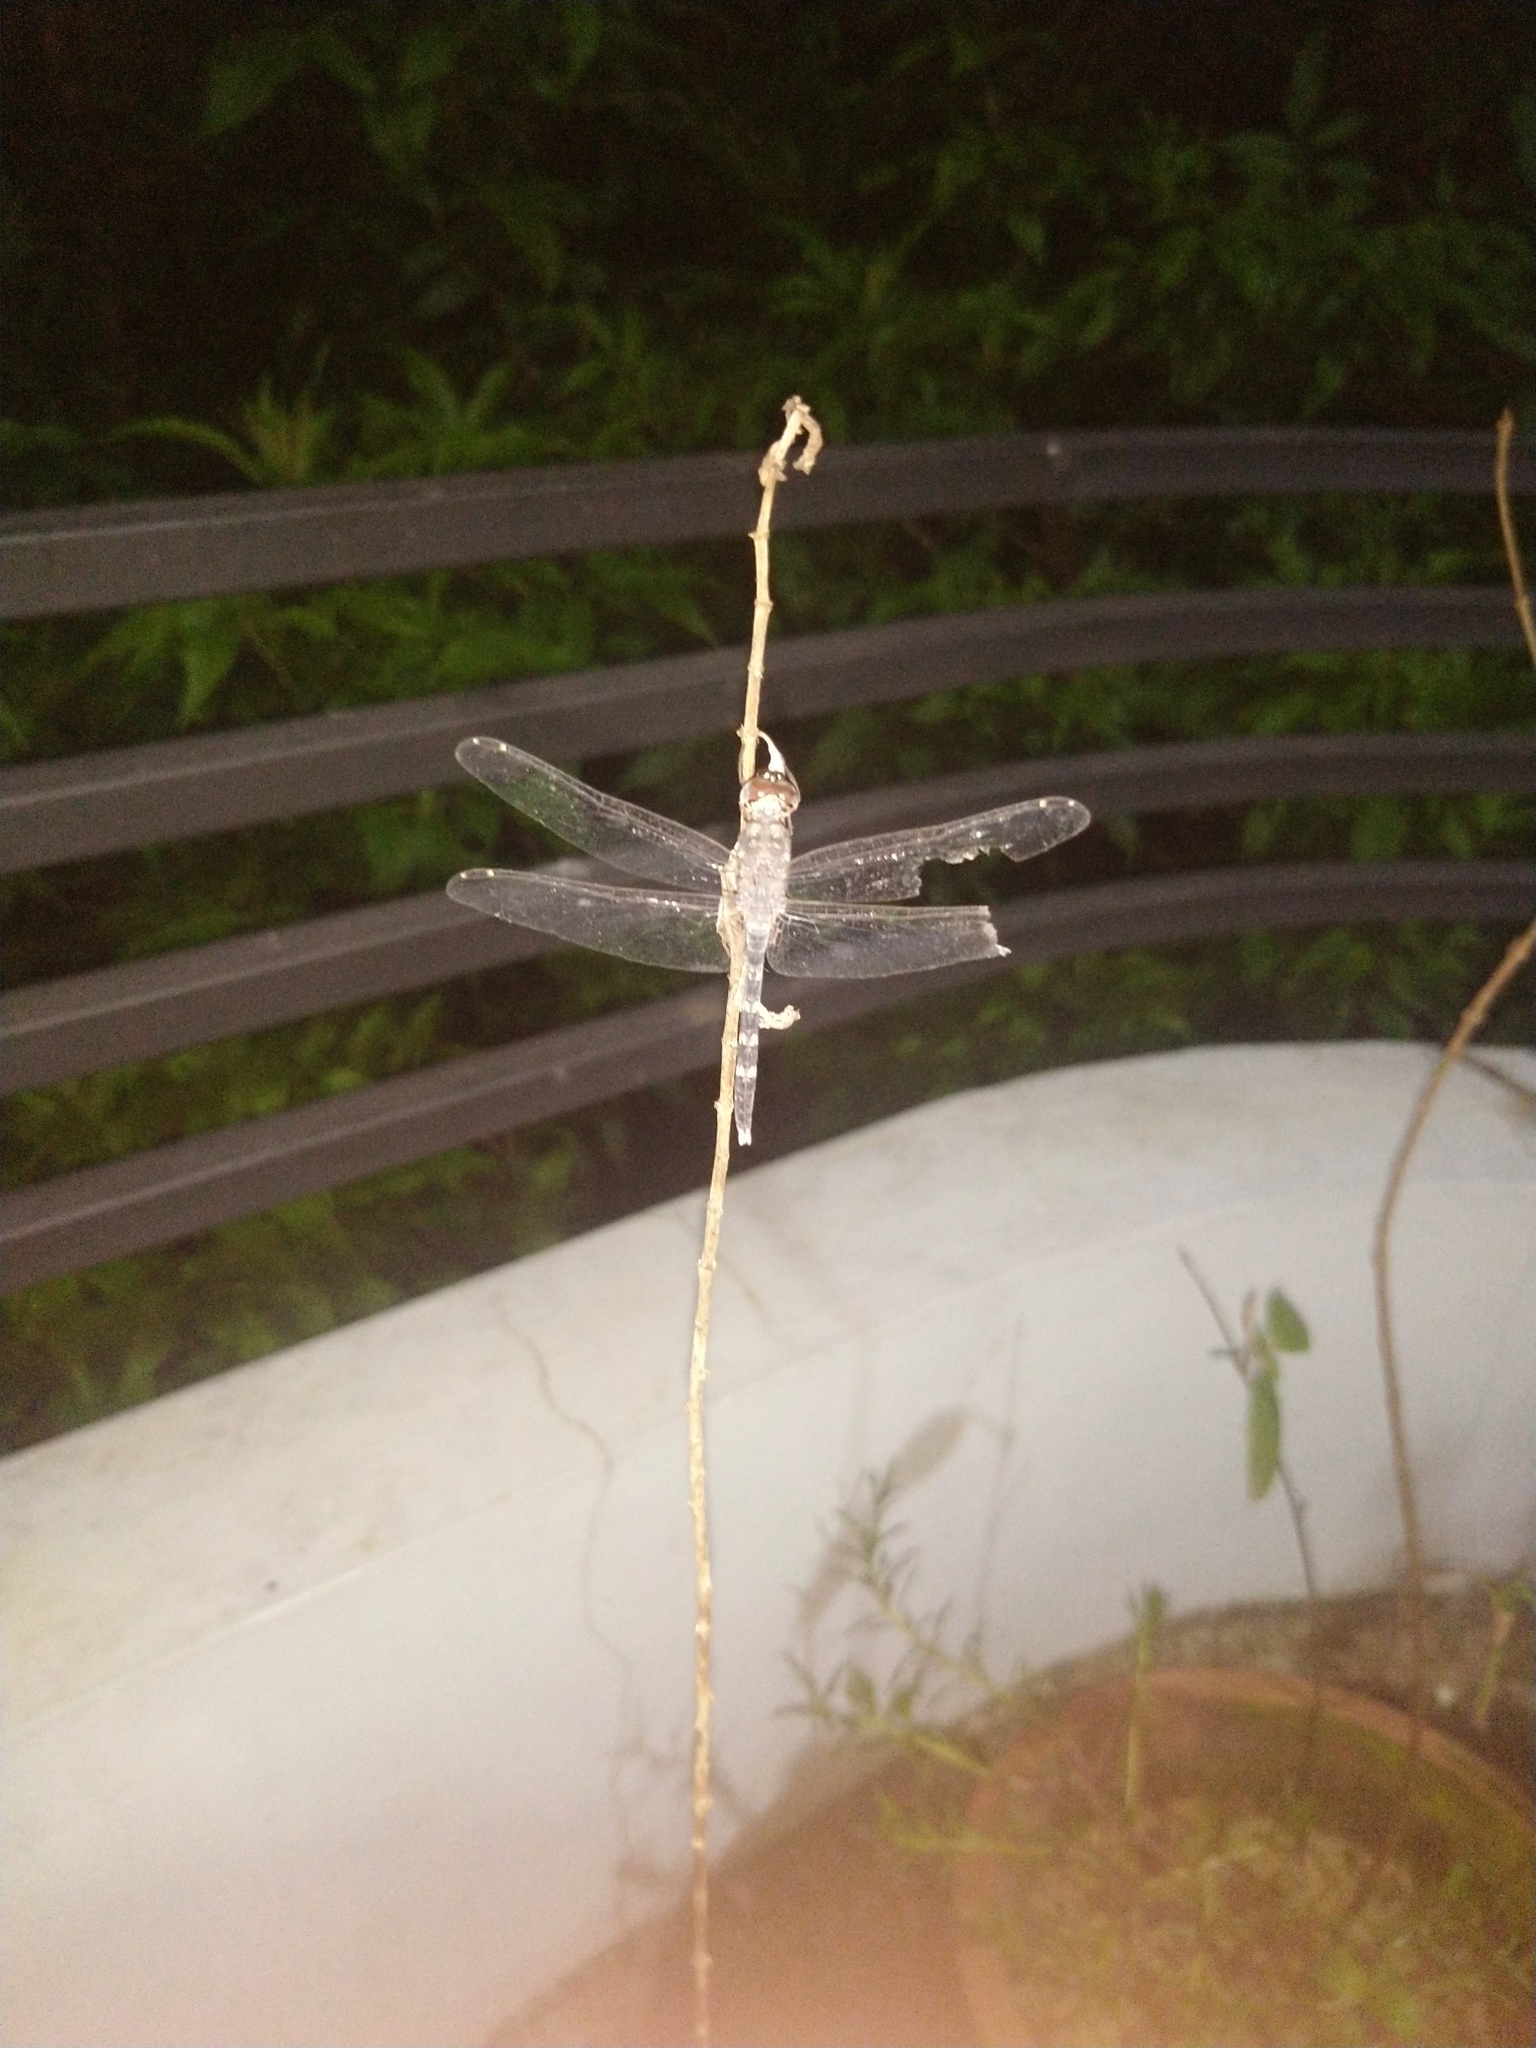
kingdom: Animalia
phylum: Arthropoda
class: Insecta
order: Odonata
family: Libellulidae
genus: Bradinopyga
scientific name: Bradinopyga geminata
